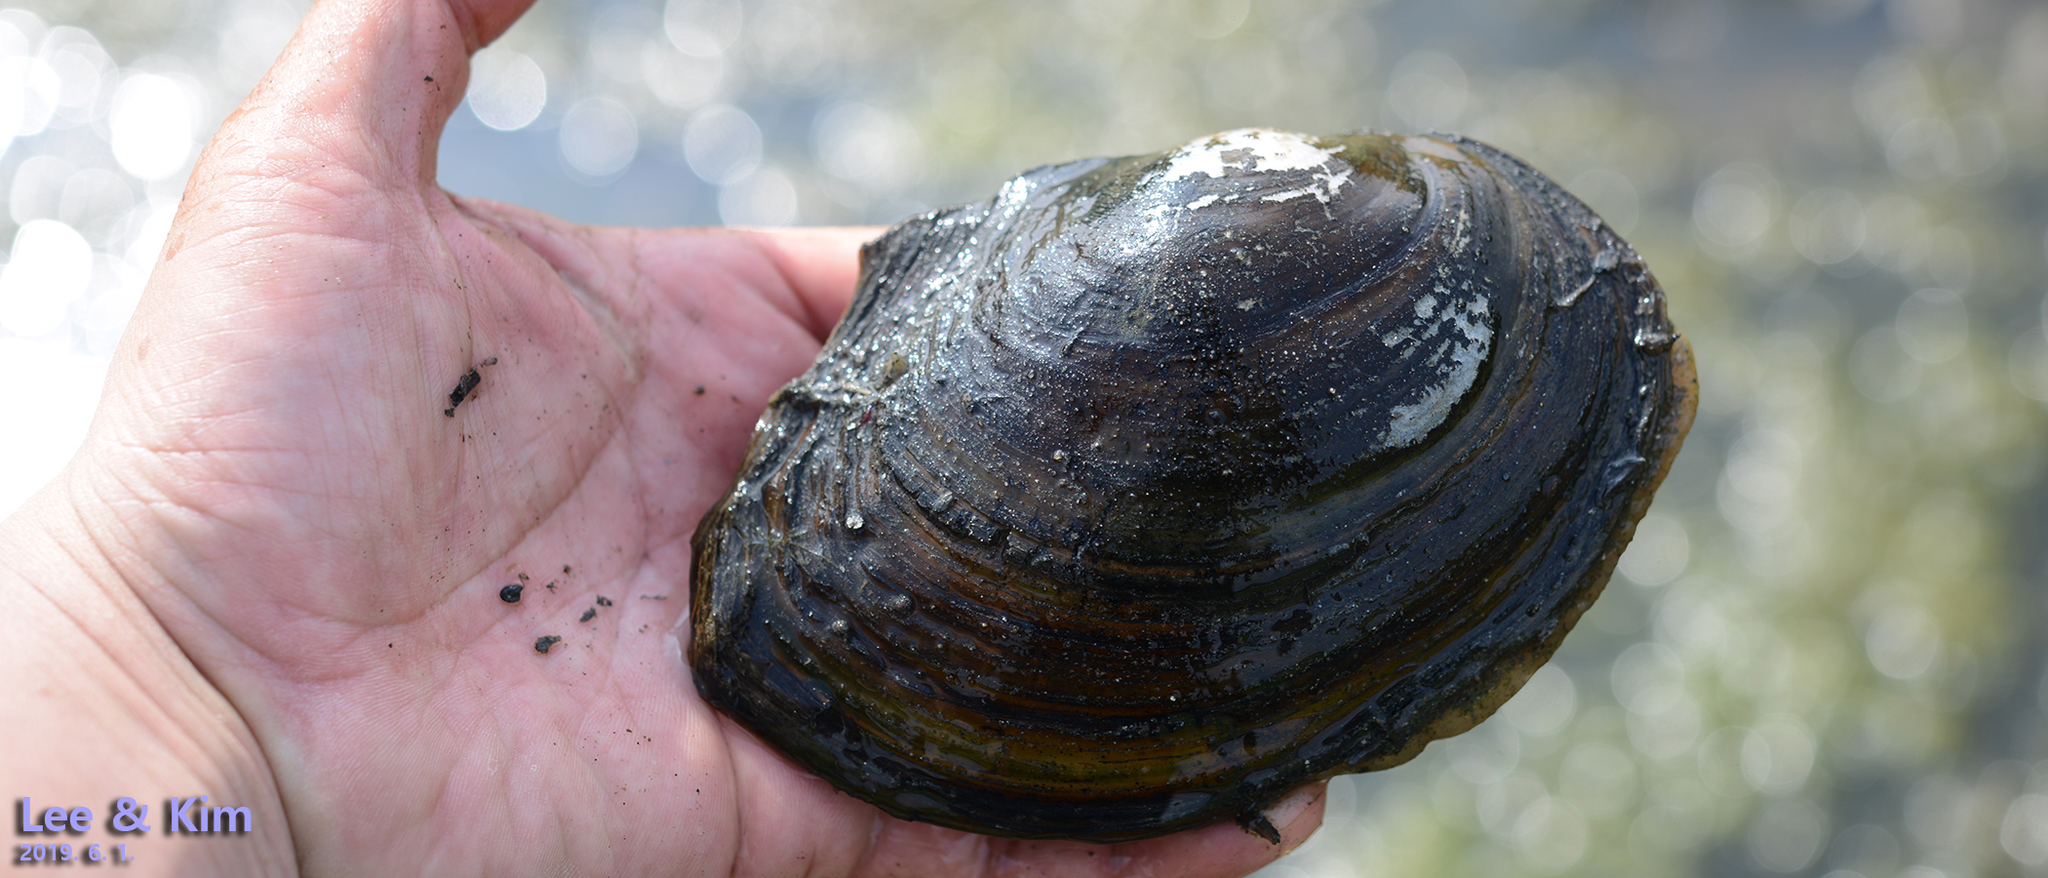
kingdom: Animalia
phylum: Mollusca
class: Bivalvia
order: Unionida
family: Unionidae
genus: Sinanodonta
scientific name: Sinanodonta lauta
